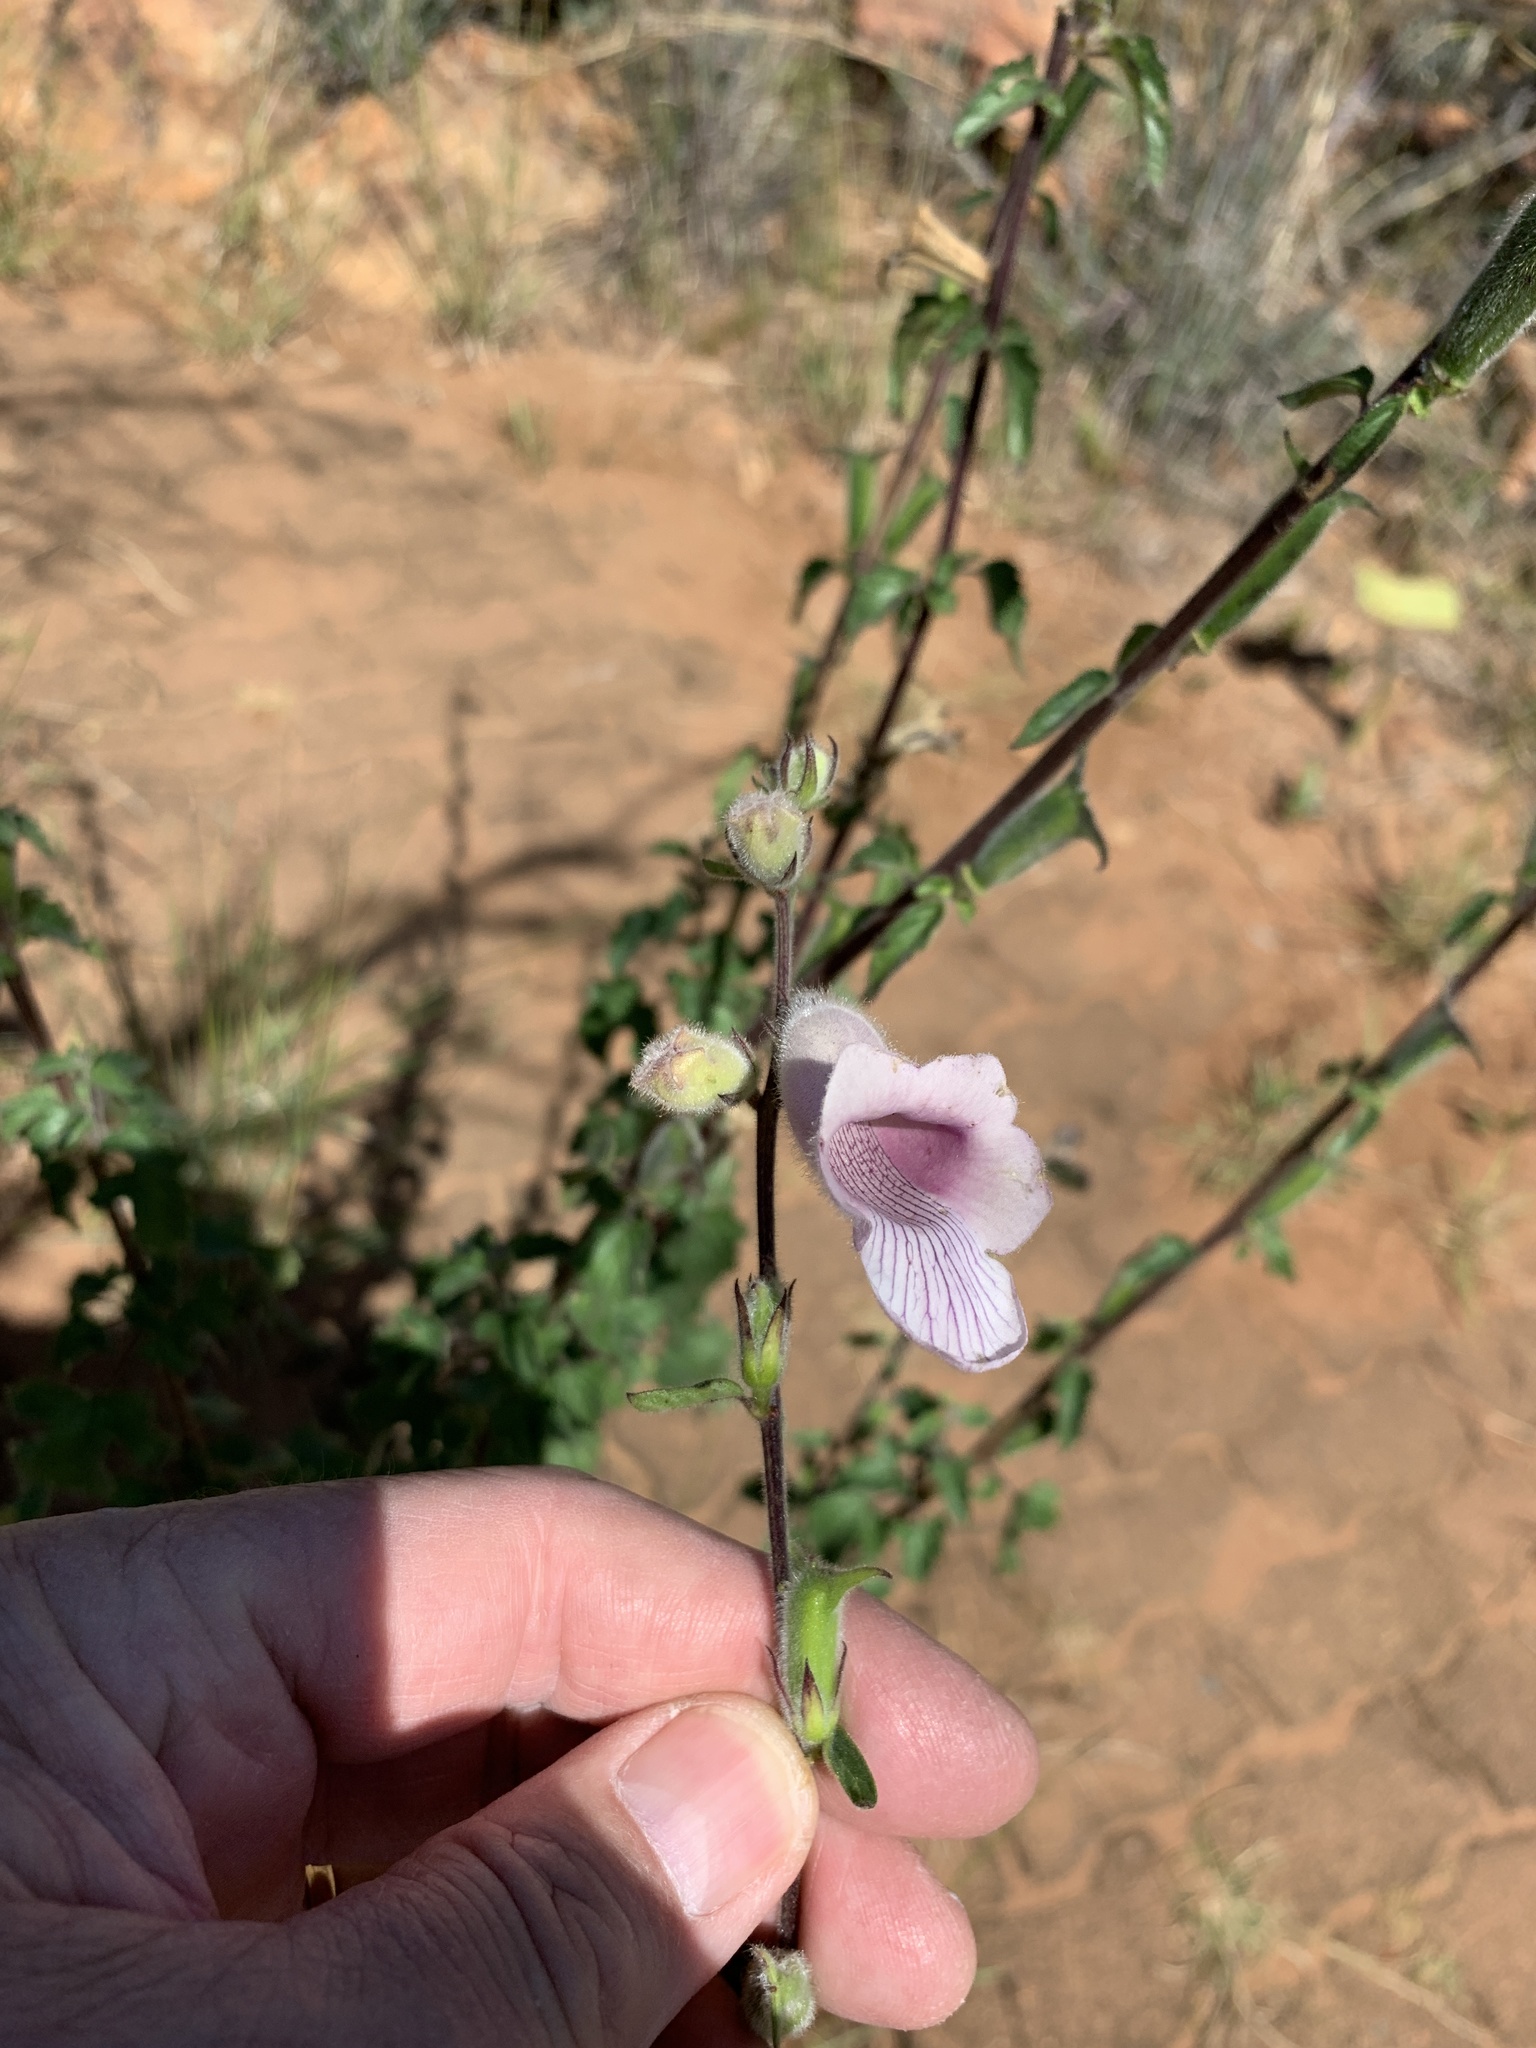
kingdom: Plantae
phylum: Tracheophyta
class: Magnoliopsida
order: Lamiales
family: Pedaliaceae
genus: Sesamum
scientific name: Sesamum trilobum
